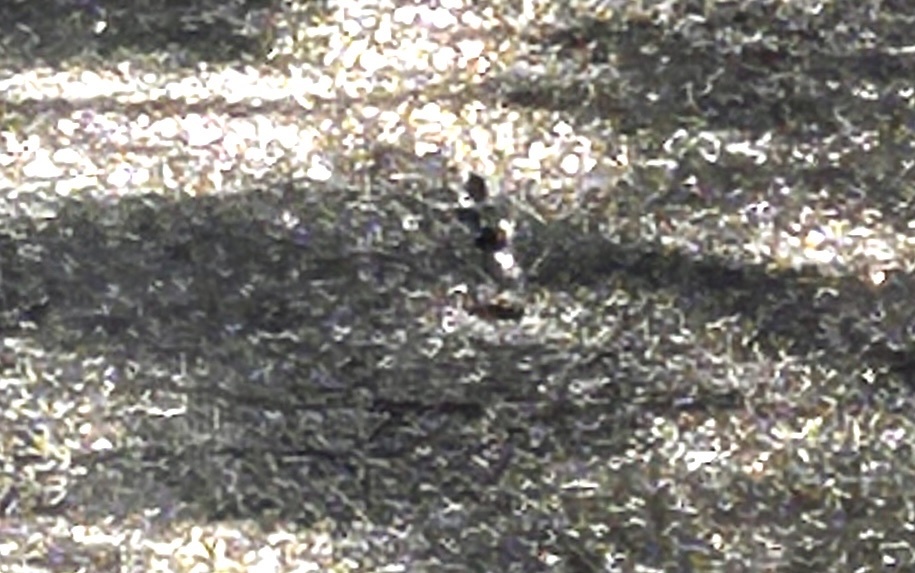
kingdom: Animalia
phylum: Chordata
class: Aves
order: Passeriformes
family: Motacillidae
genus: Motacilla
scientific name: Motacilla alba
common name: White wagtail
